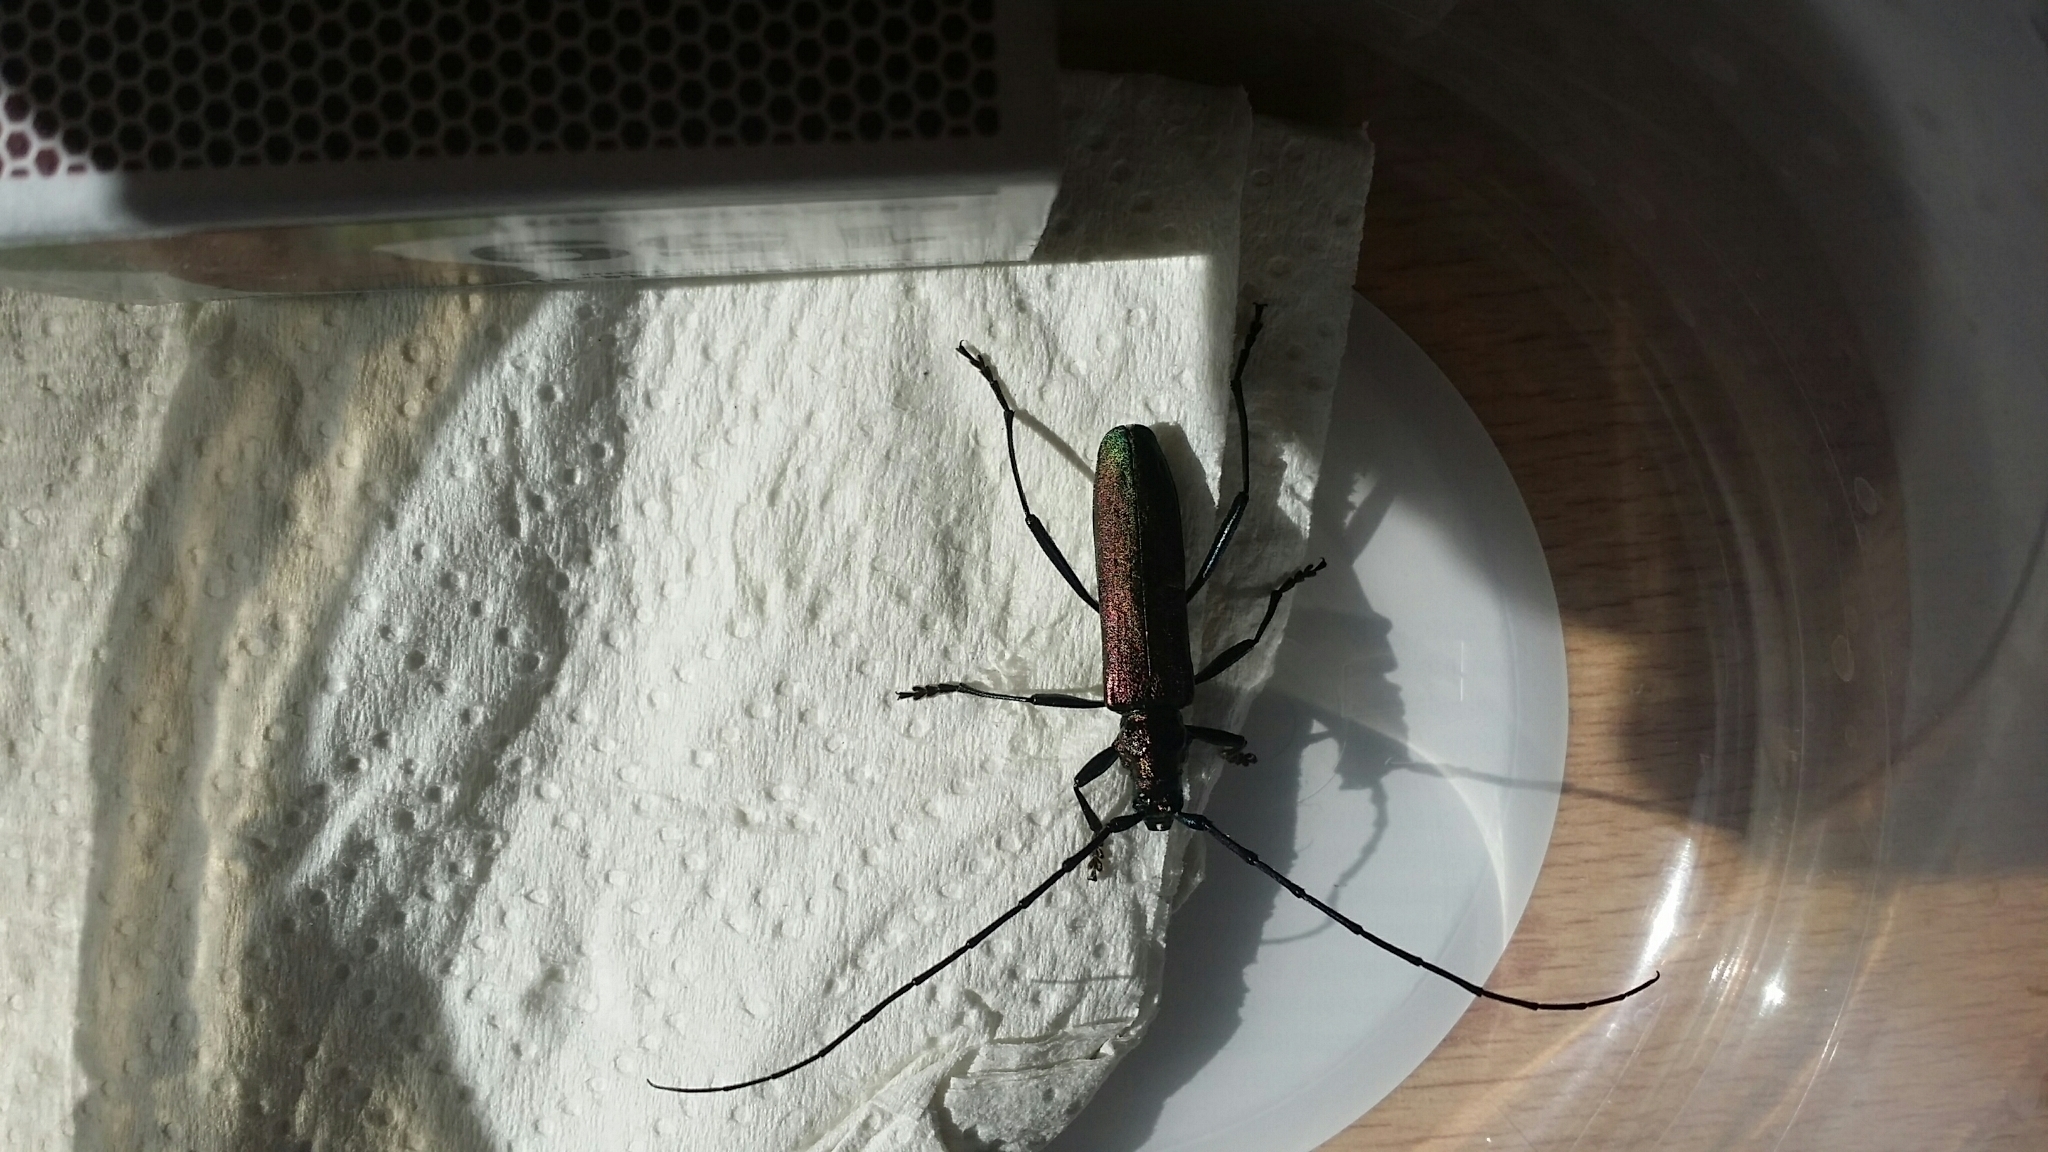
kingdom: Animalia
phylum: Arthropoda
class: Insecta
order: Coleoptera
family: Cerambycidae
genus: Aromia
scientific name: Aromia moschata
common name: Musk beetle
